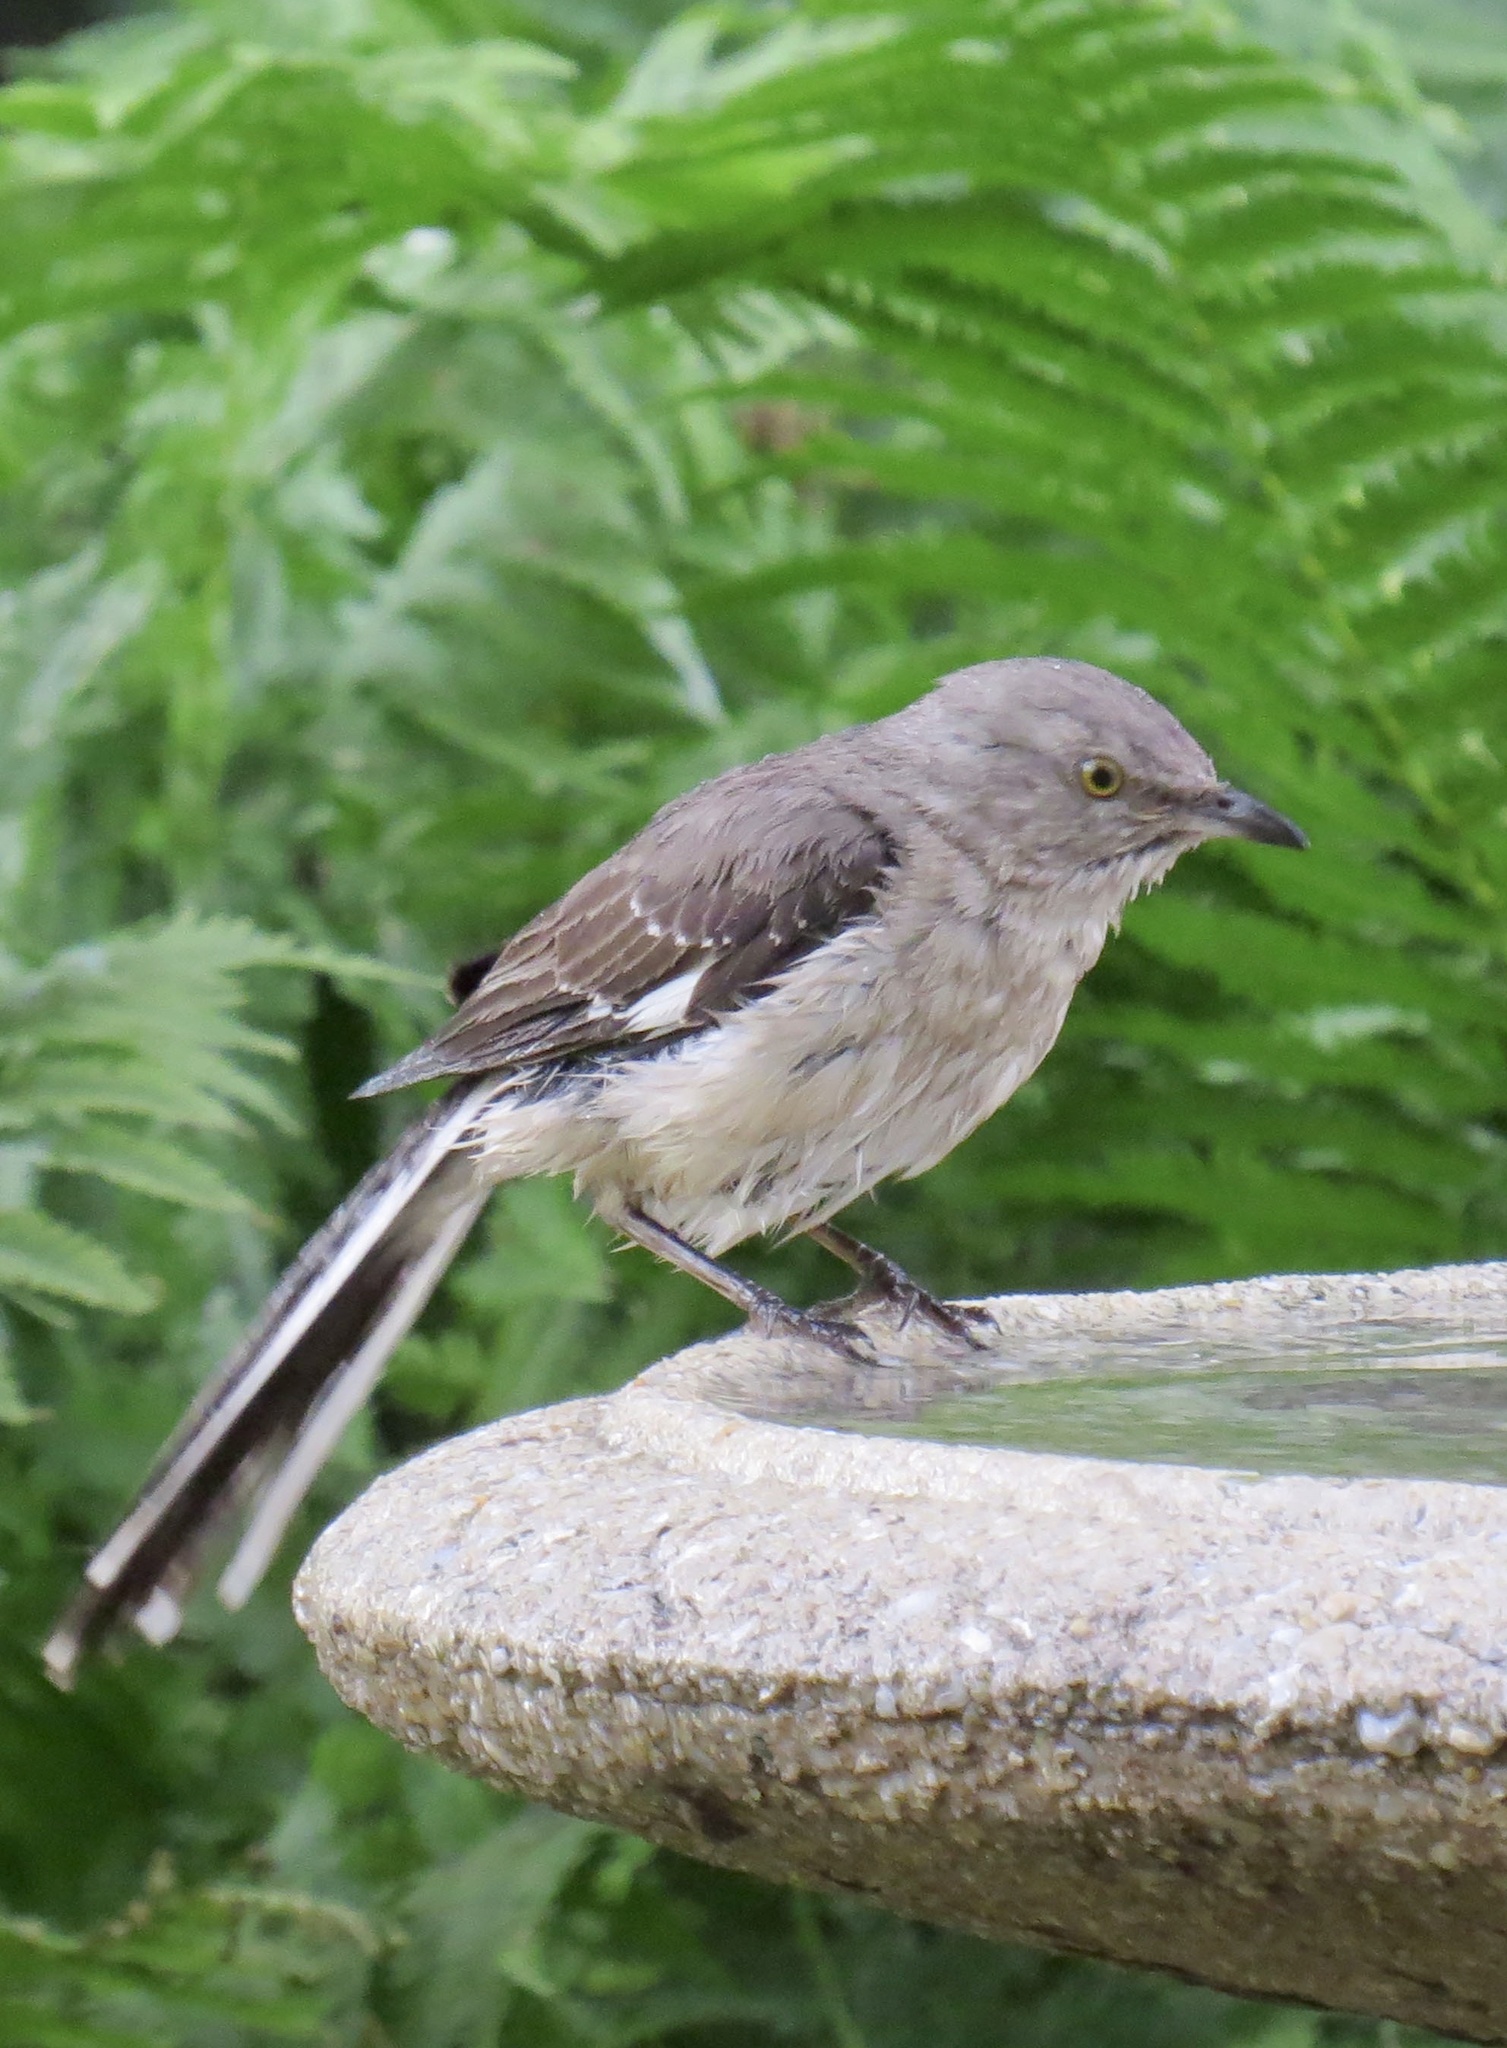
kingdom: Animalia
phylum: Chordata
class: Aves
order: Passeriformes
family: Mimidae
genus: Mimus
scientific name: Mimus polyglottos
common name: Northern mockingbird
